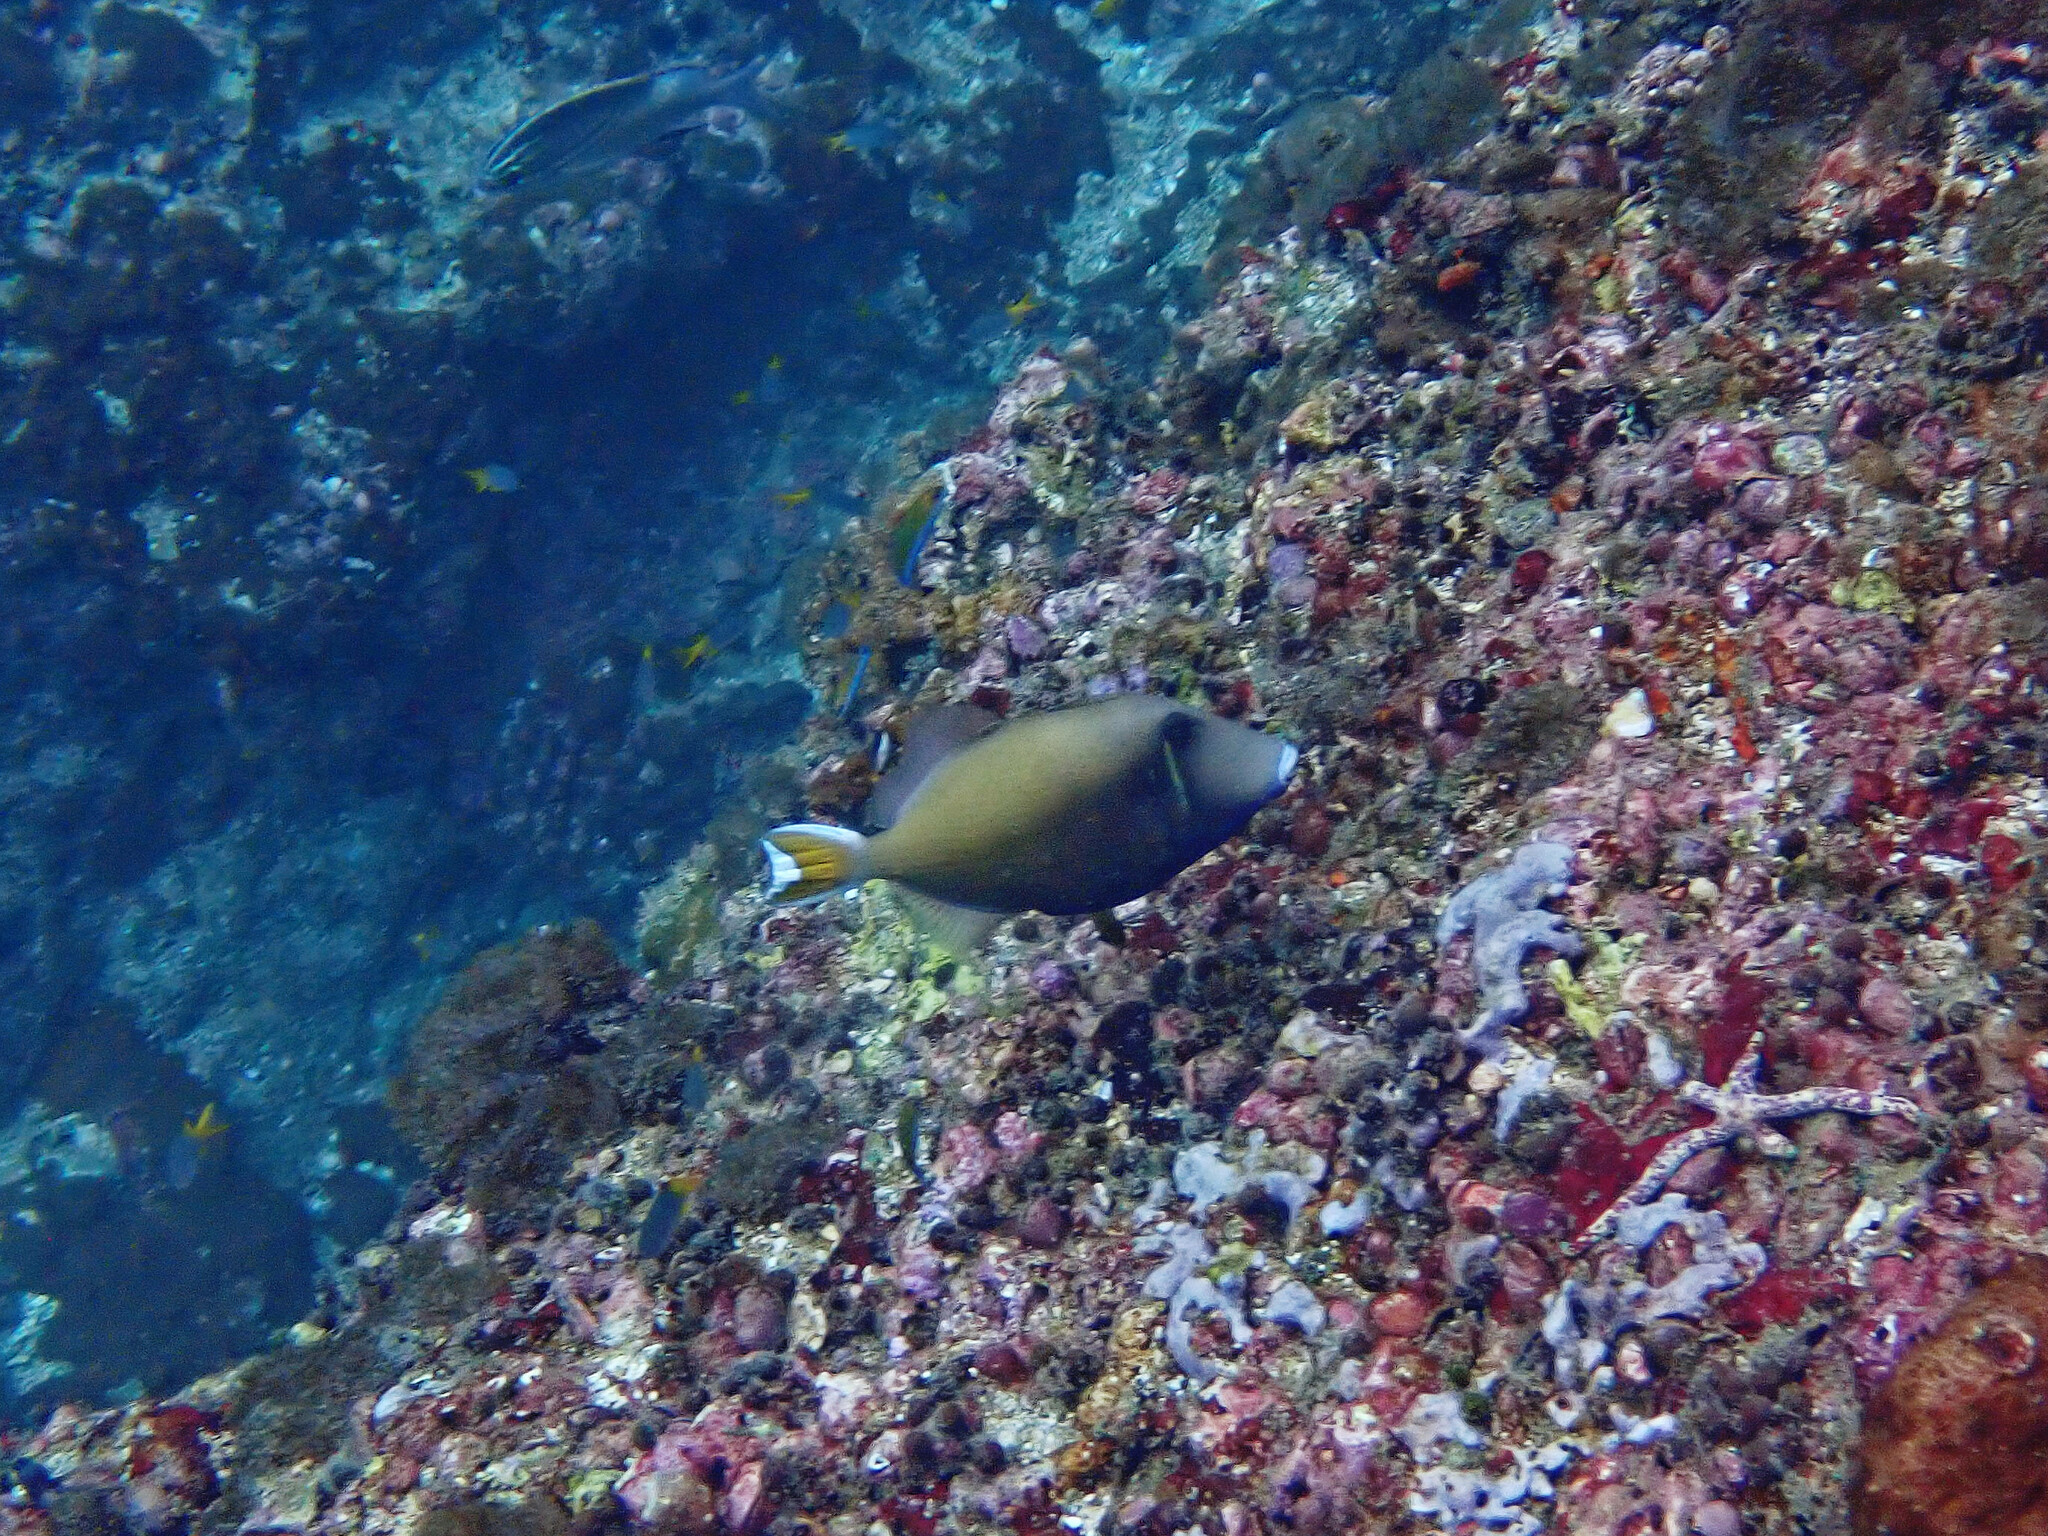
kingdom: Animalia
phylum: Chordata
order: Tetraodontiformes
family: Balistidae
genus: Sufflamen
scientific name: Sufflamen chrysopterum
